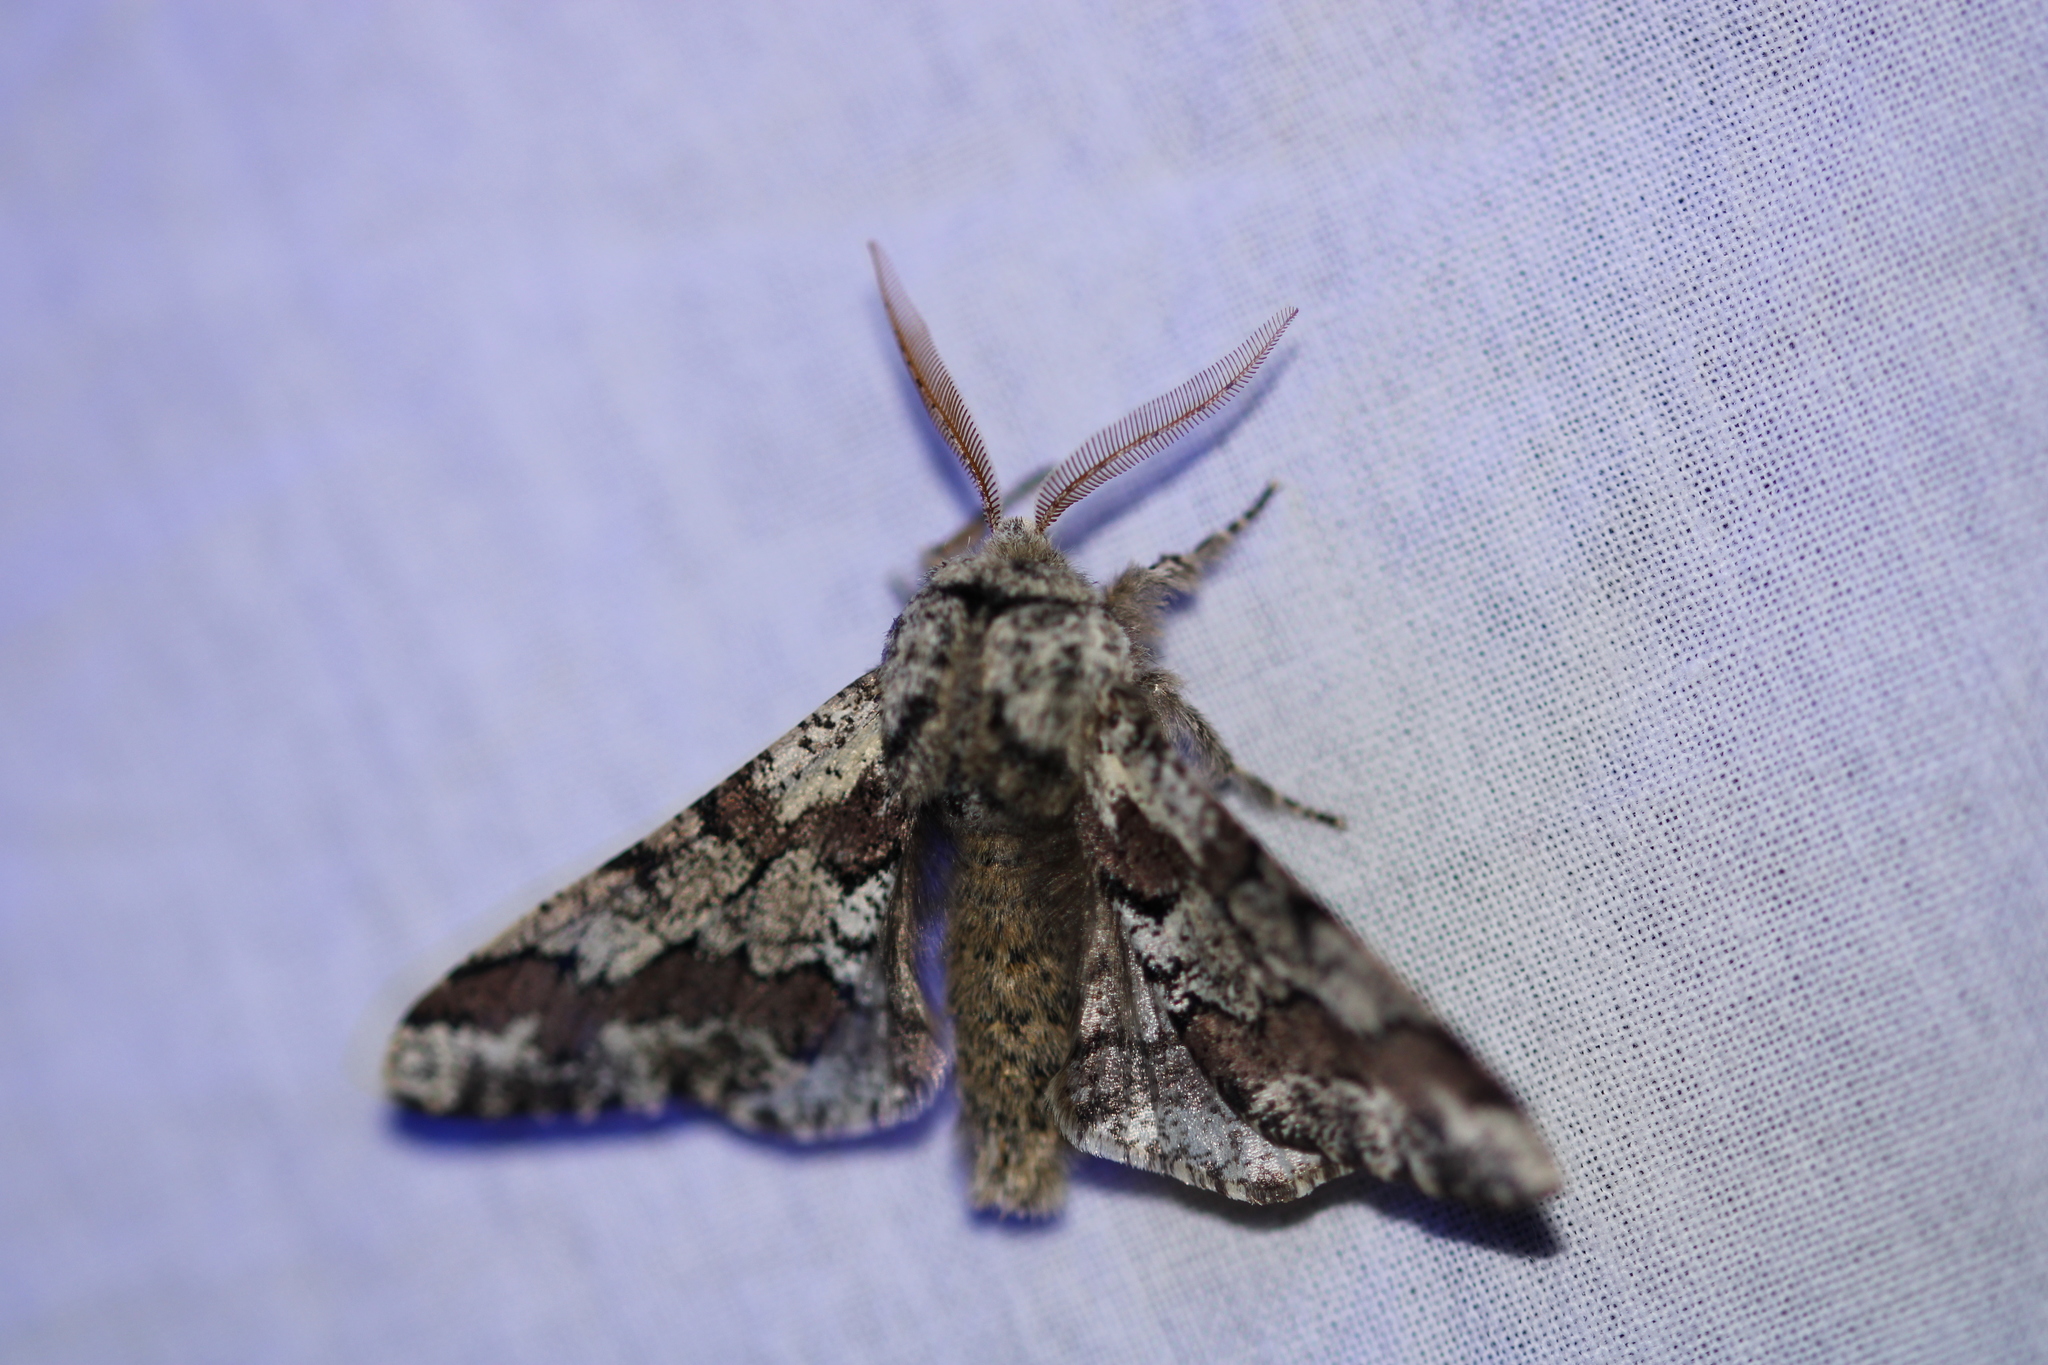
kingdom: Animalia
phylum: Arthropoda
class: Insecta
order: Lepidoptera
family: Geometridae
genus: Biston
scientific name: Biston strataria
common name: Oak beauty
